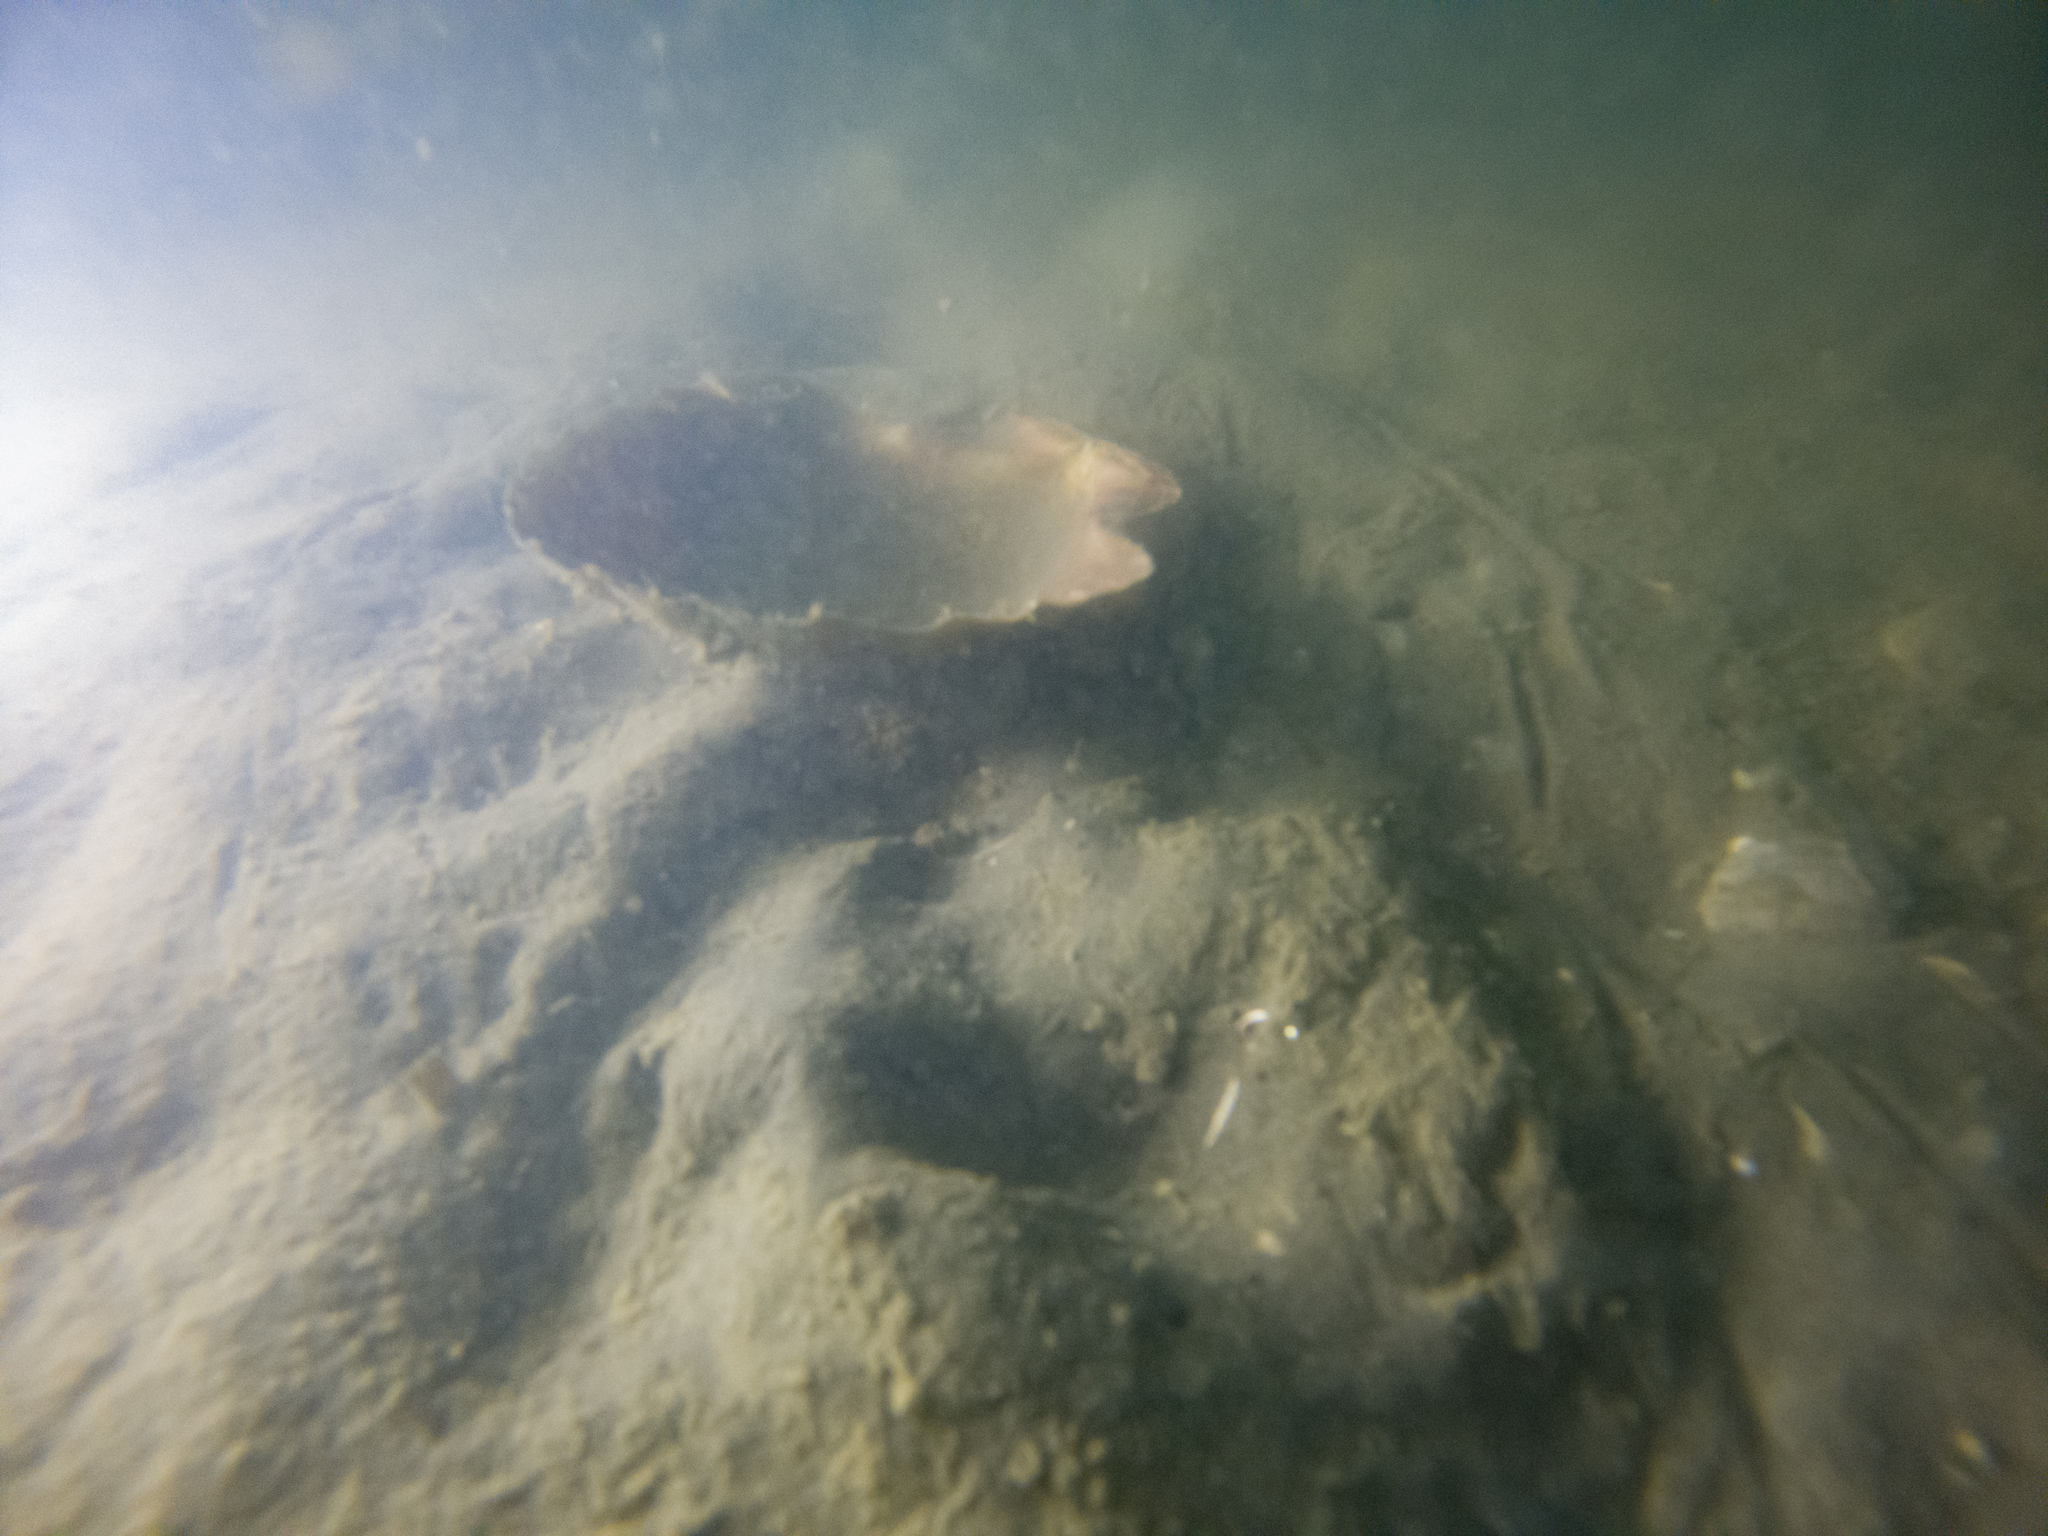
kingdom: Animalia
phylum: Mollusca
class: Bivalvia
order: Pectinida
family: Pectinidae
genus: Pecten
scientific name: Pecten novaezelandiae
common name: New zealand scallop
